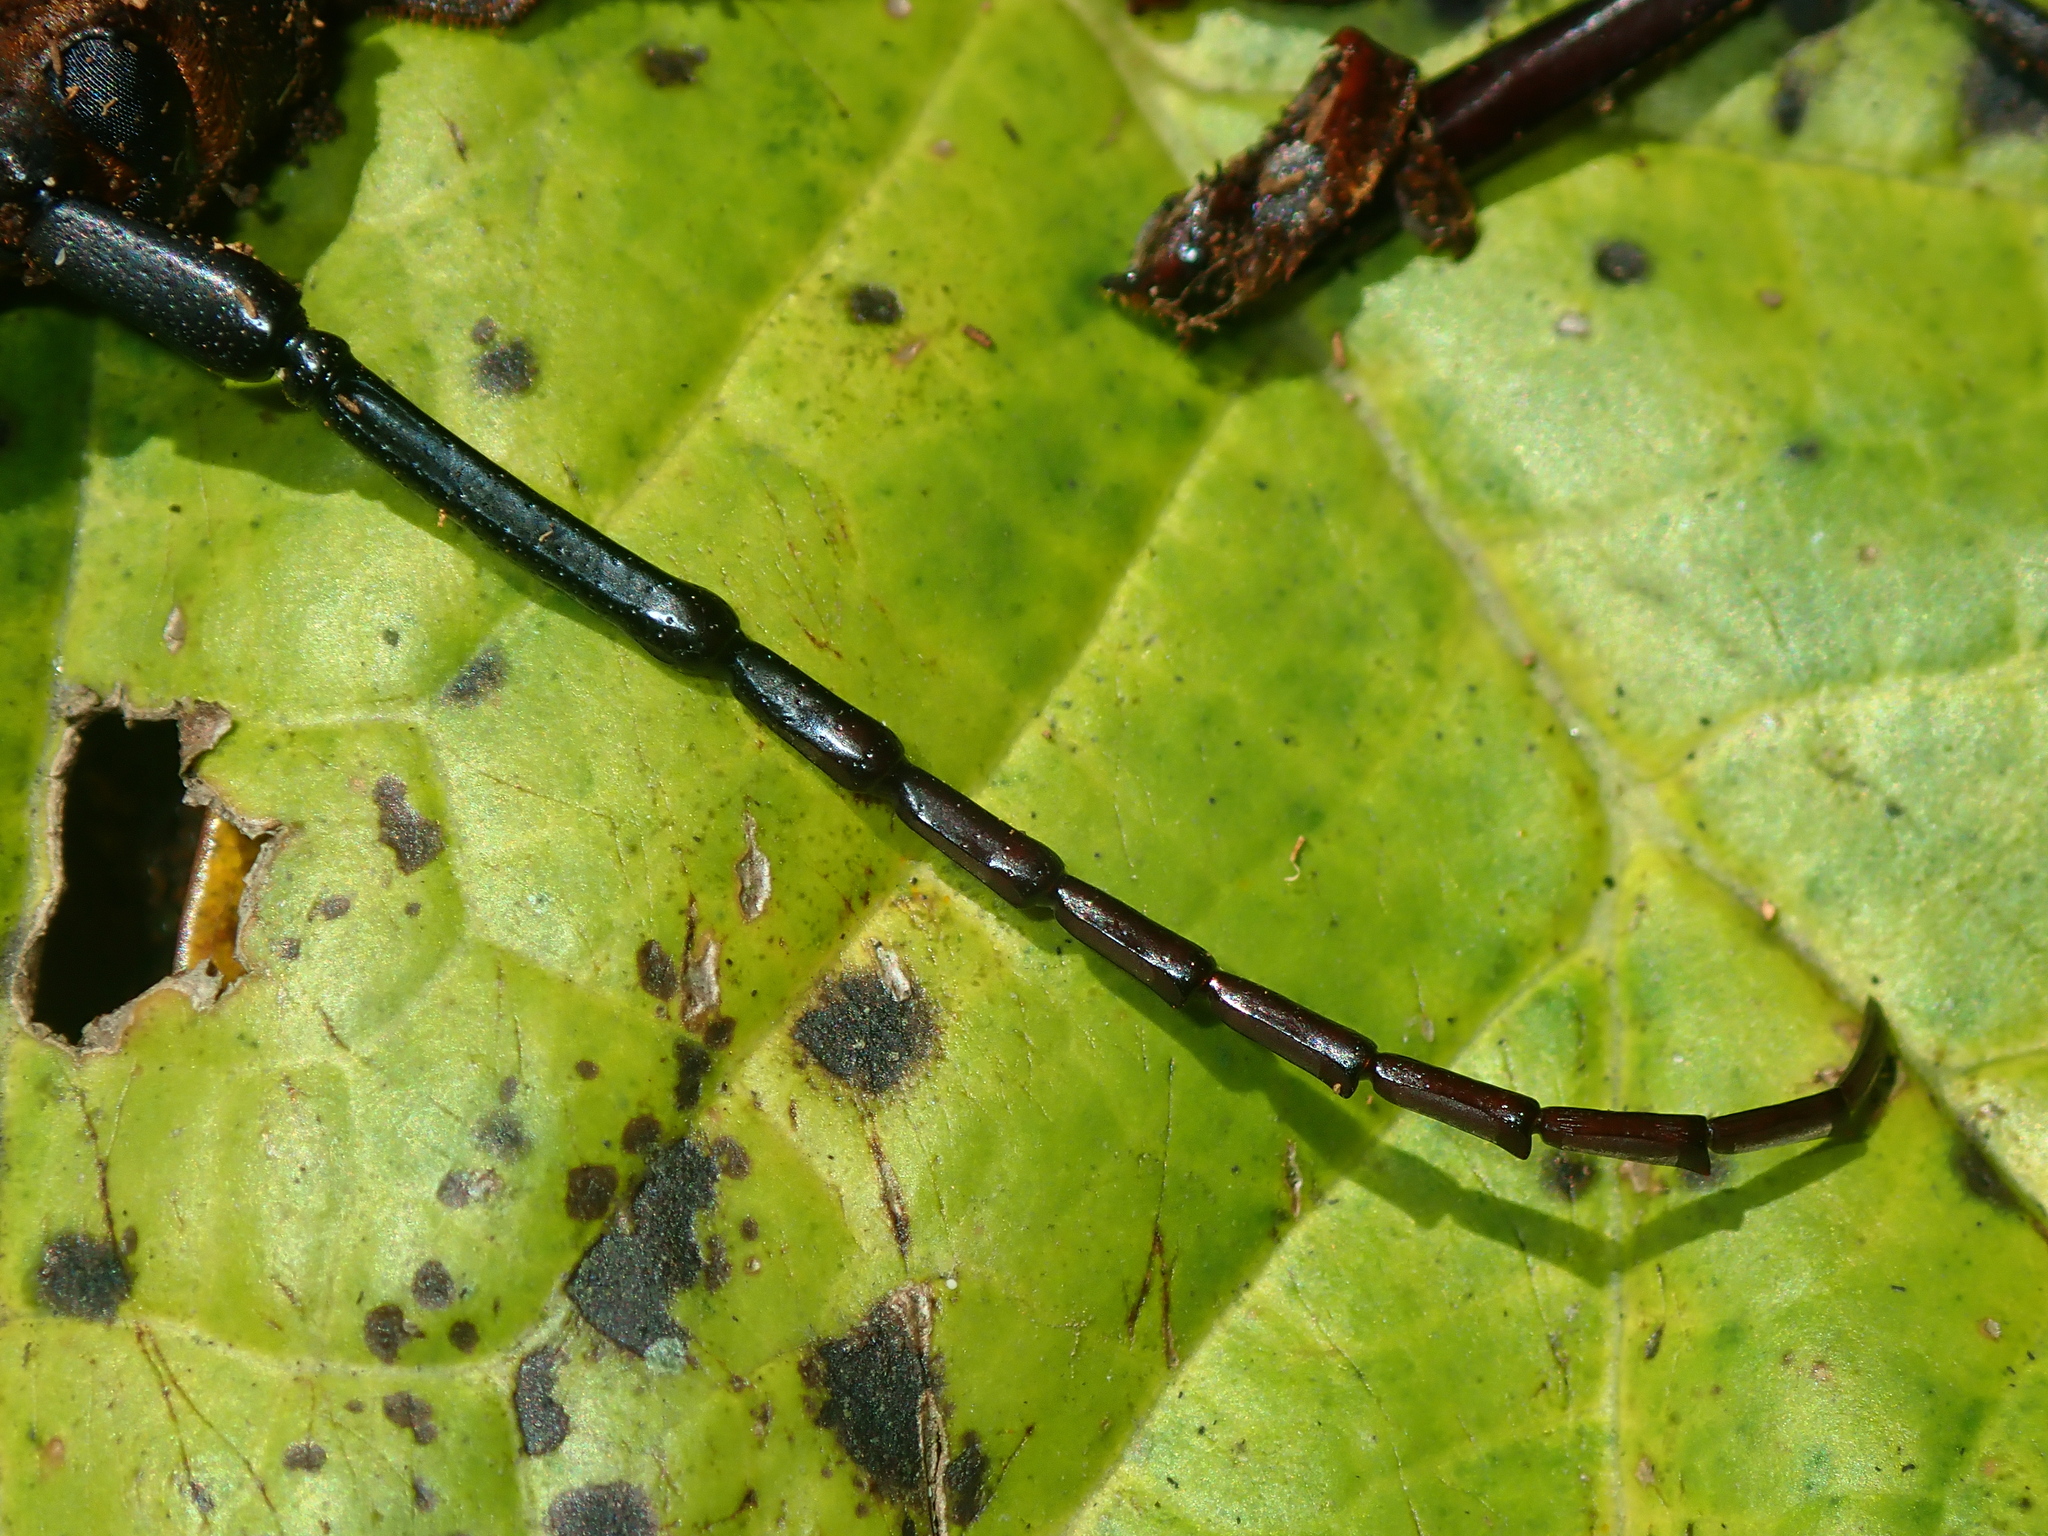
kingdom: Animalia
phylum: Arthropoda
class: Insecta
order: Coleoptera
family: Cerambycidae
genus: Orthomegas
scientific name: Orthomegas similis
